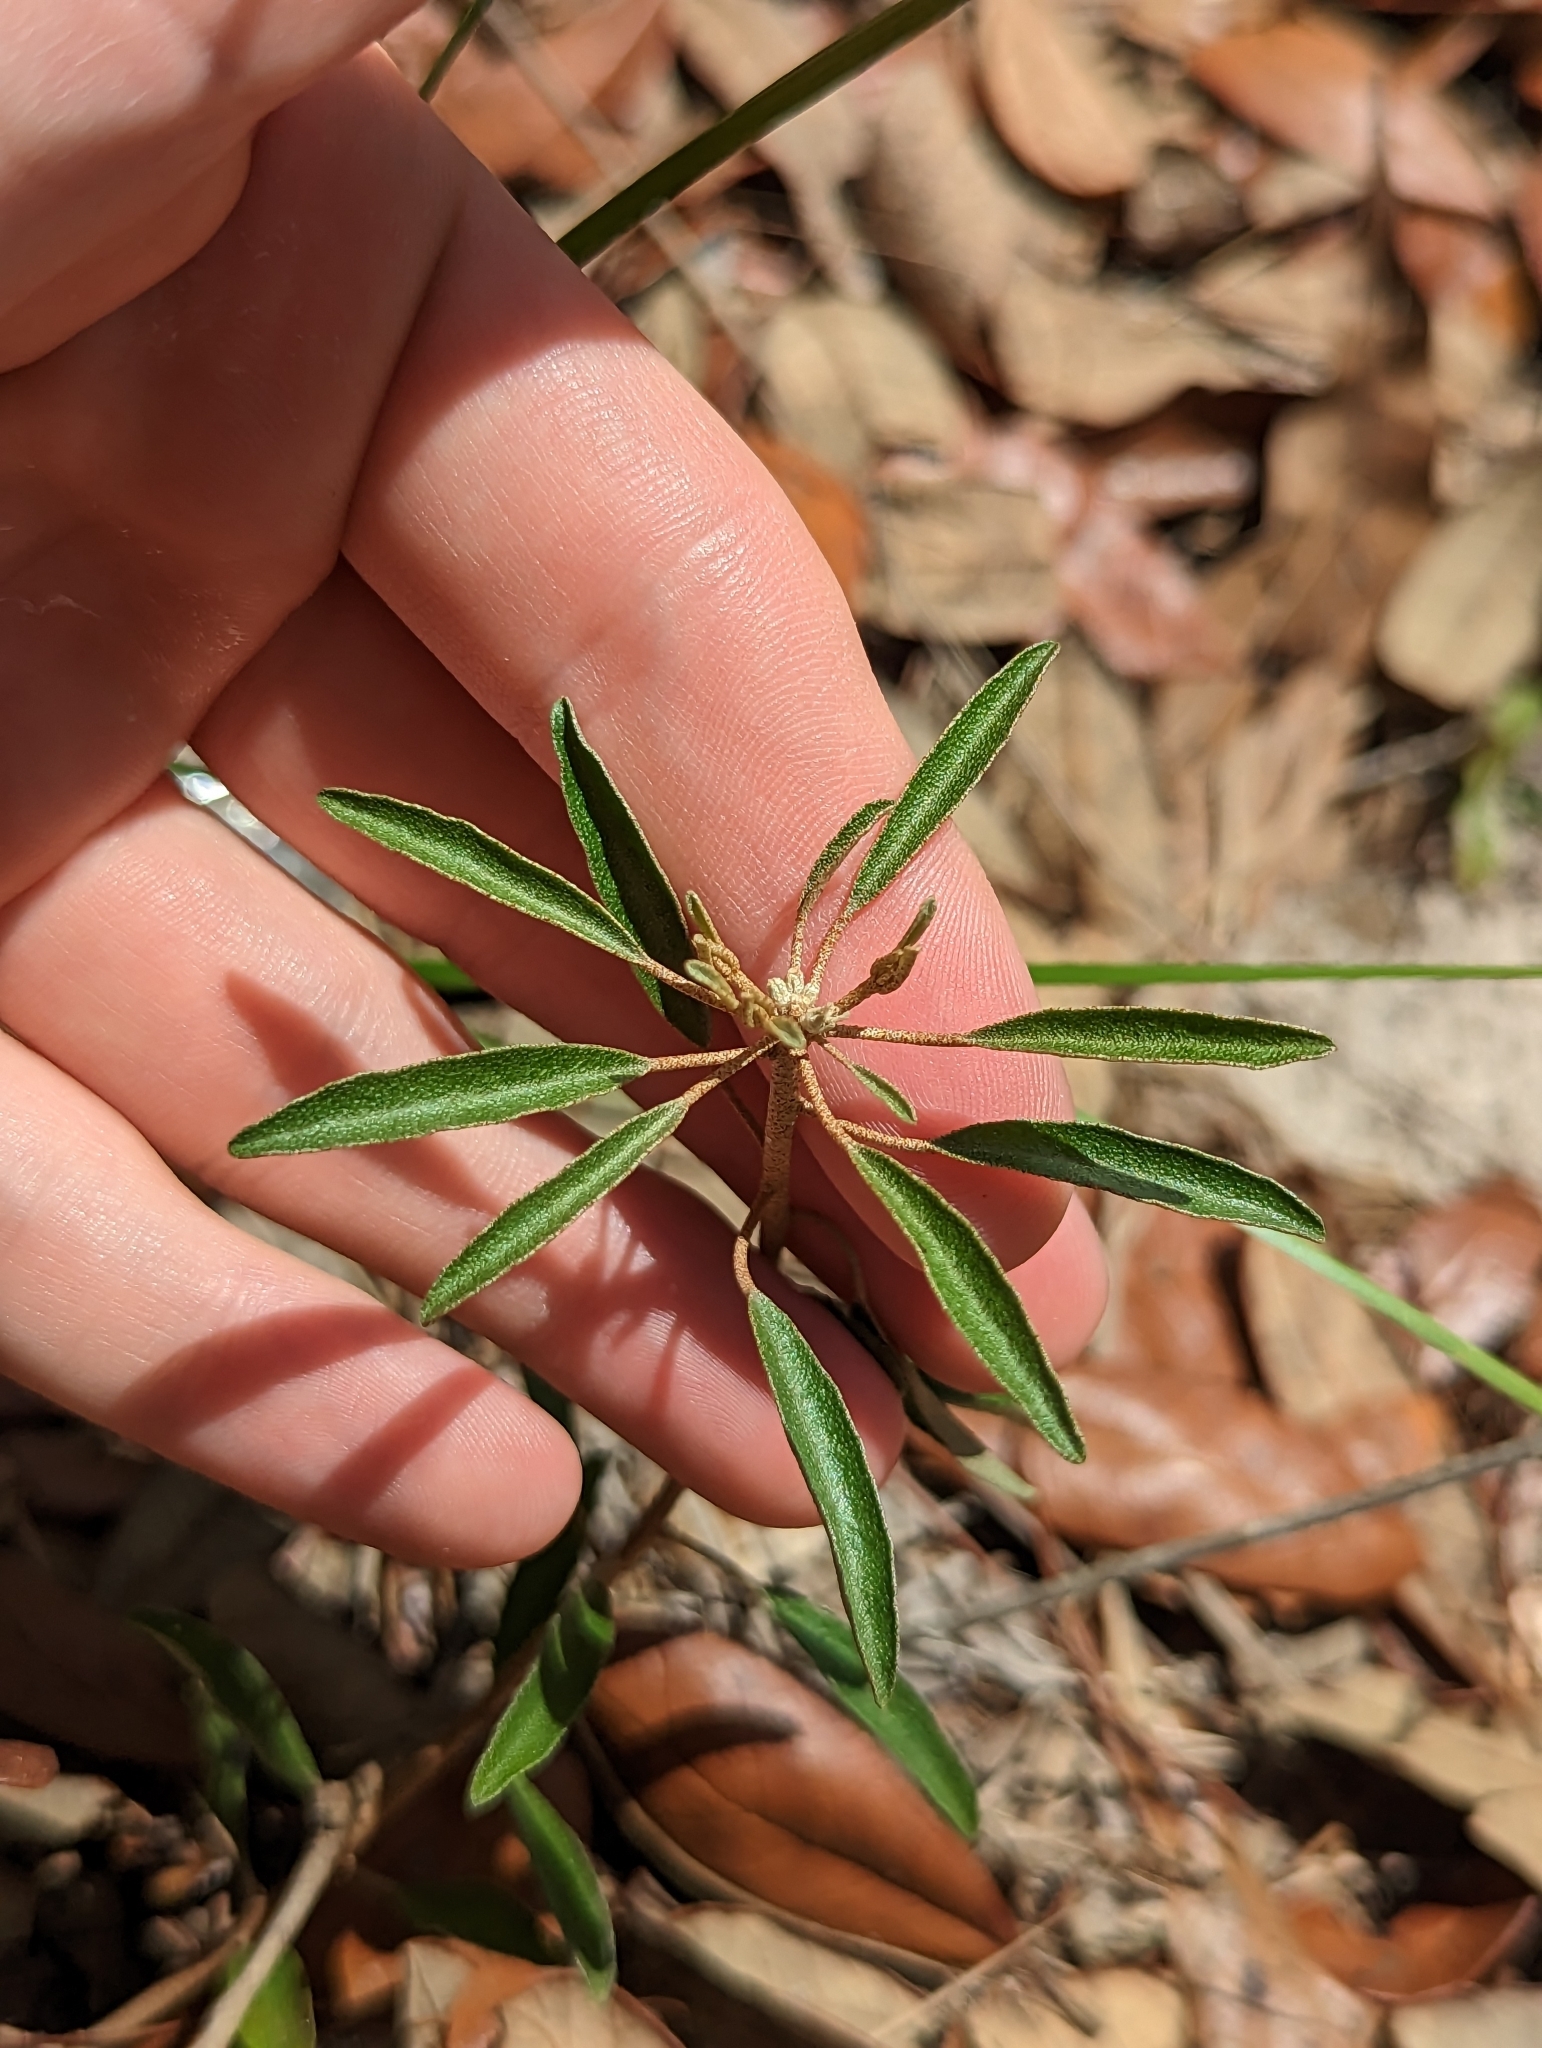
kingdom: Plantae
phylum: Tracheophyta
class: Magnoliopsida
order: Malpighiales
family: Euphorbiaceae
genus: Croton
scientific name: Croton argyranthemus
